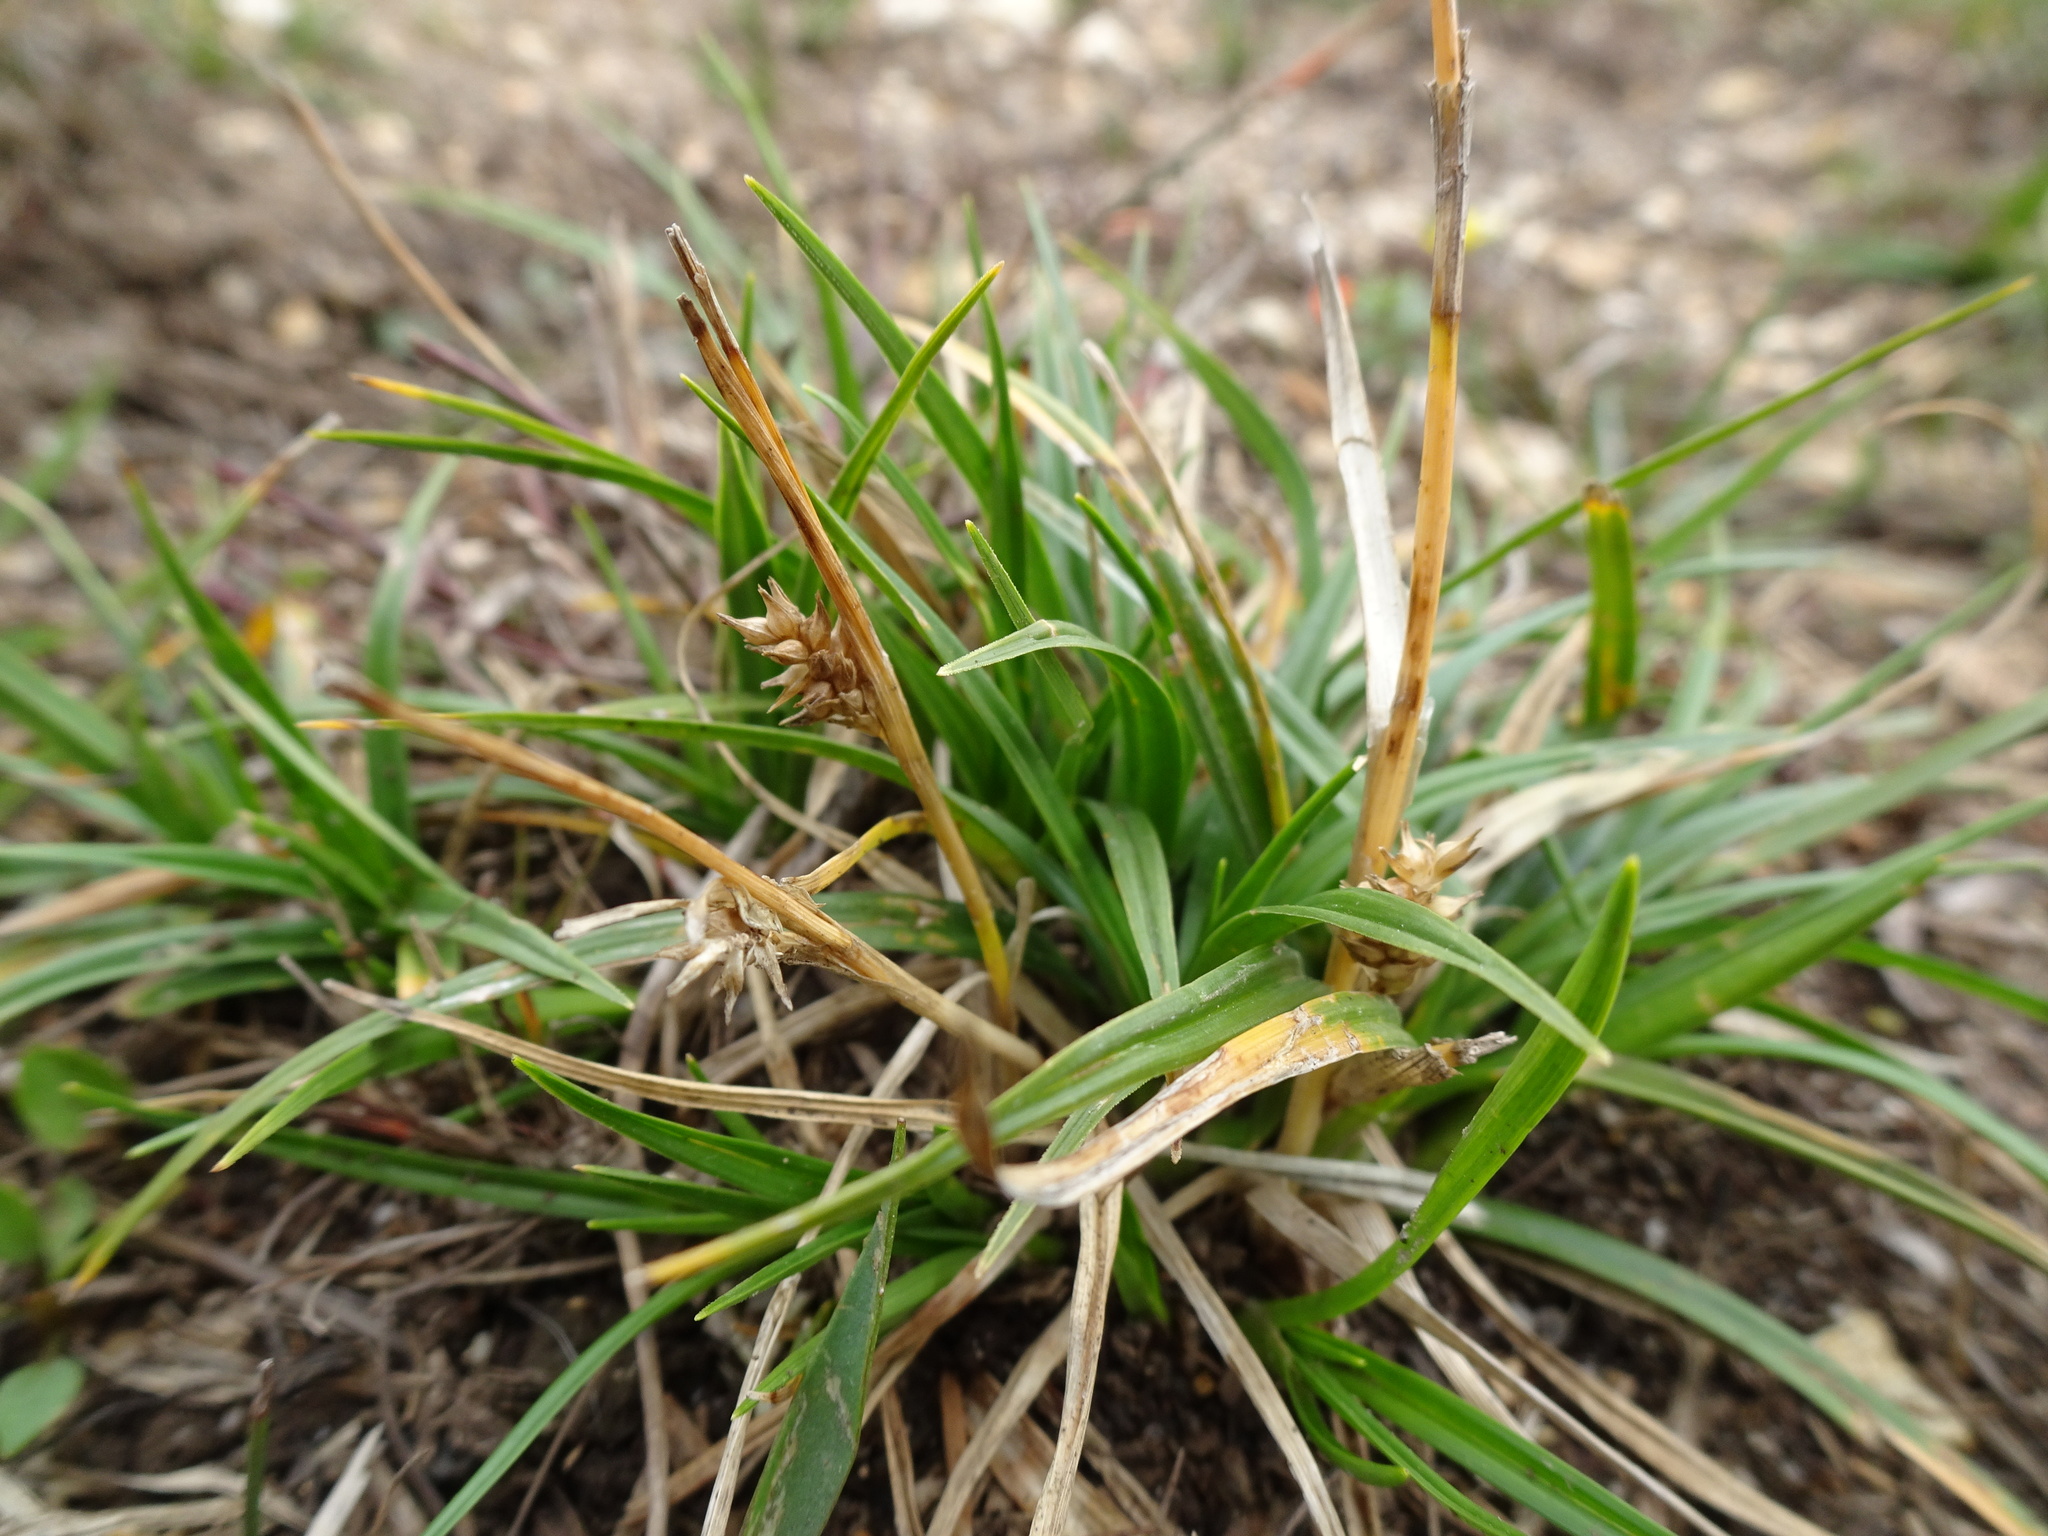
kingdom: Plantae
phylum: Tracheophyta
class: Liliopsida
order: Poales
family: Cyperaceae
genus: Carex
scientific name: Carex demissa
